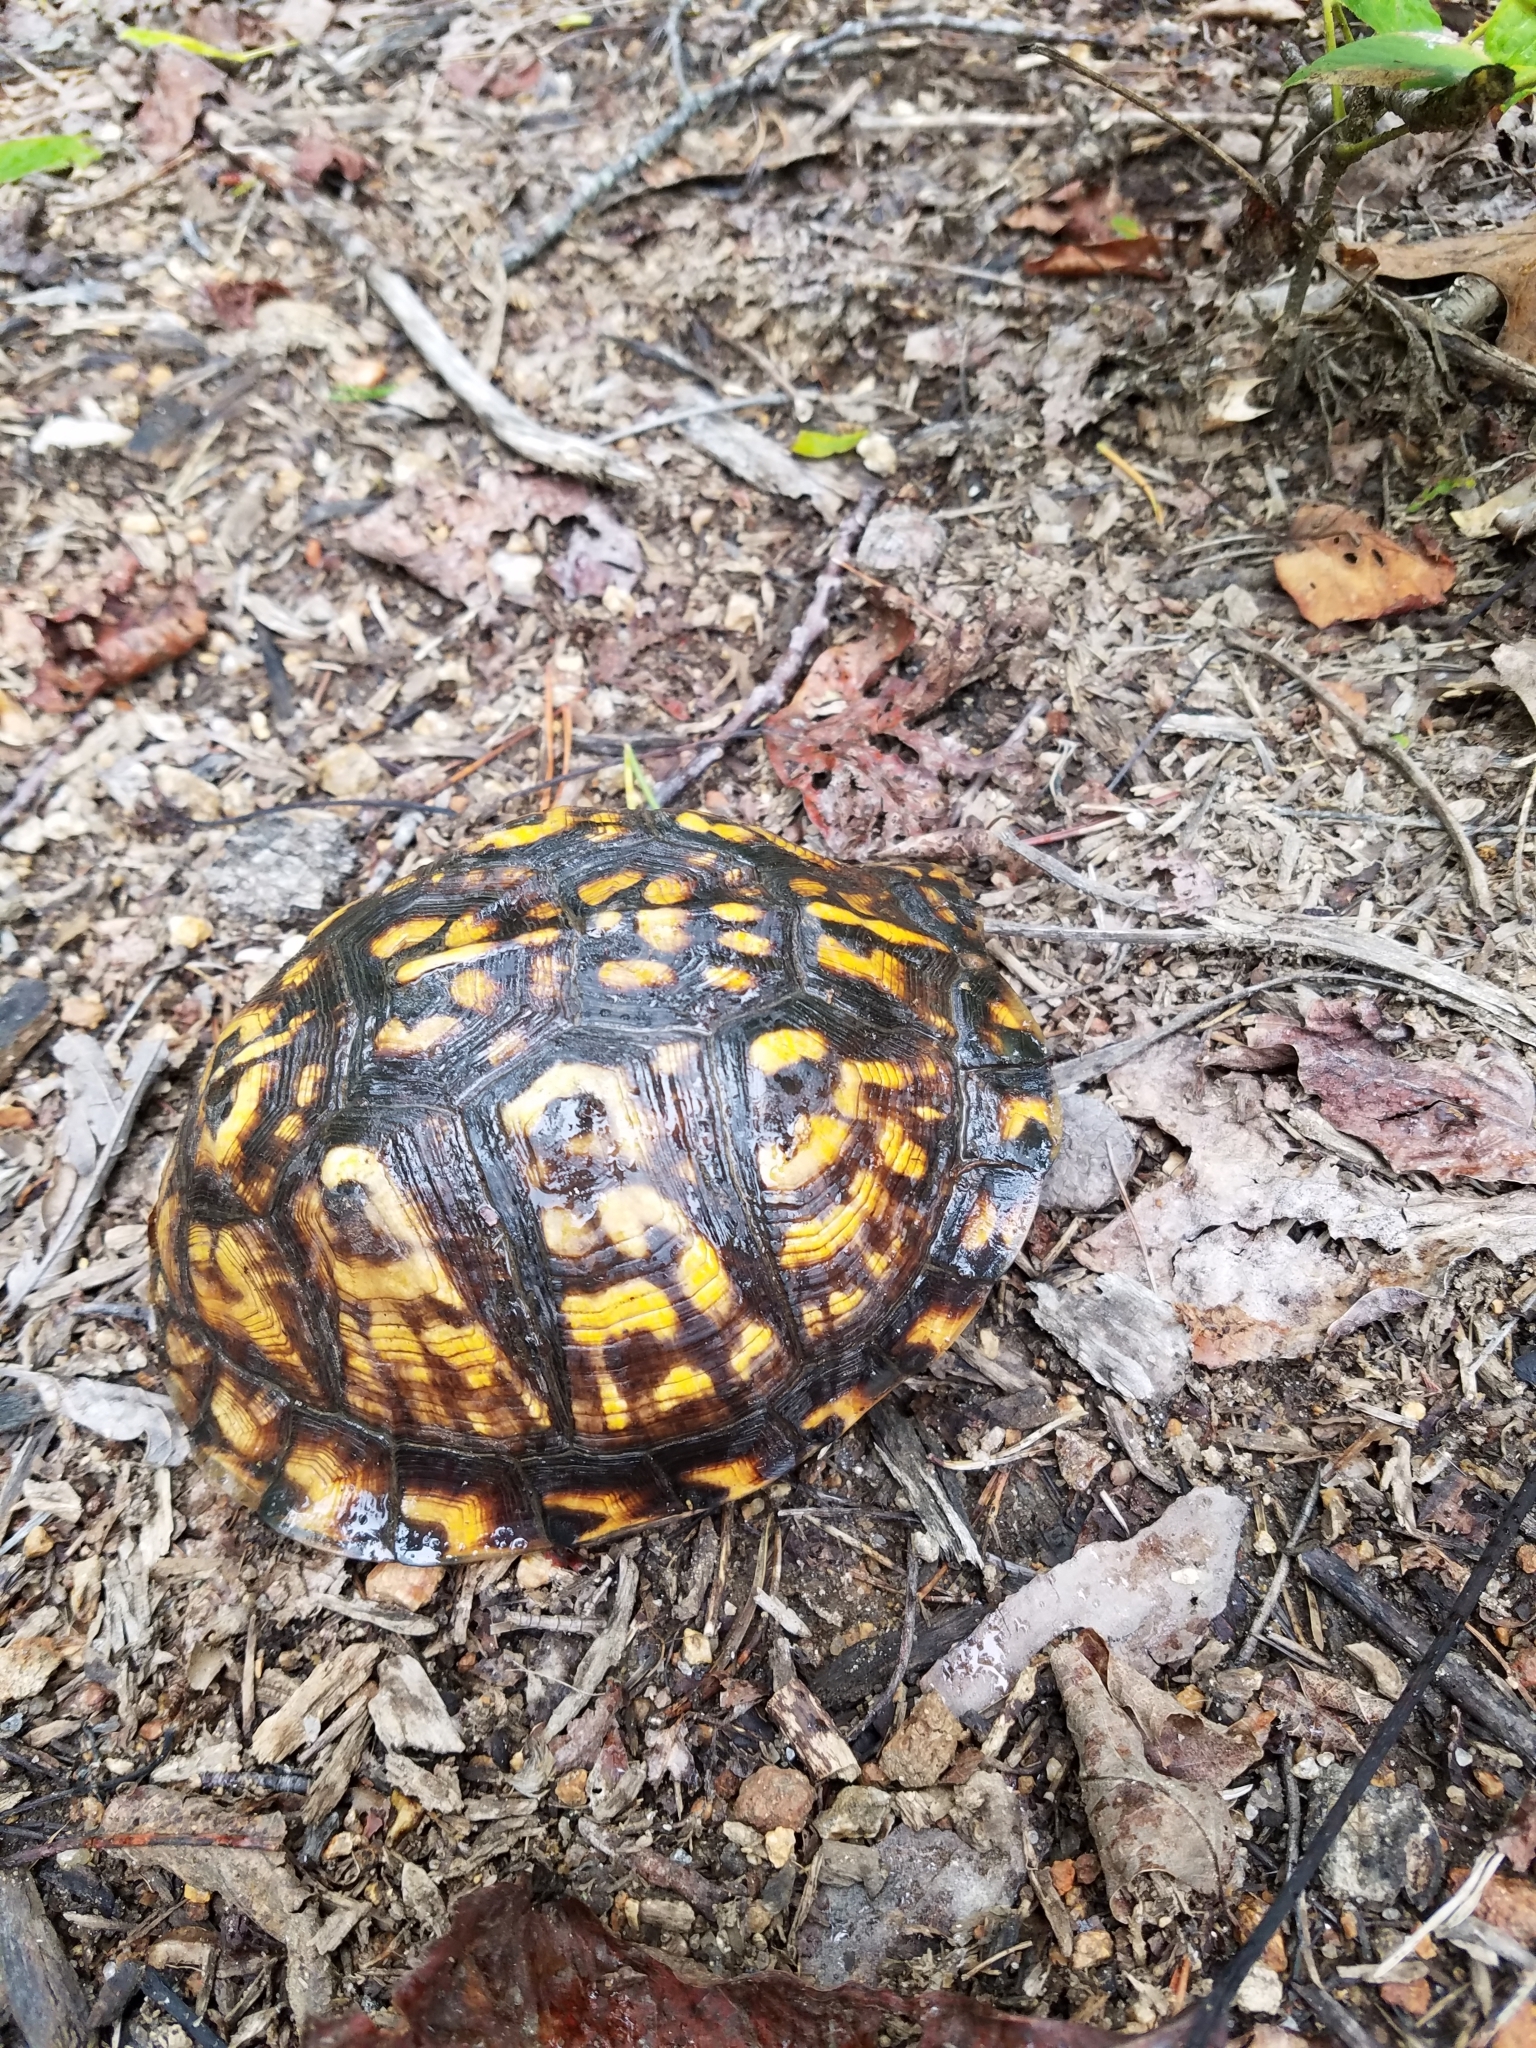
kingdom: Animalia
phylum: Chordata
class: Testudines
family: Emydidae
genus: Terrapene
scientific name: Terrapene carolina
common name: Common box turtle
